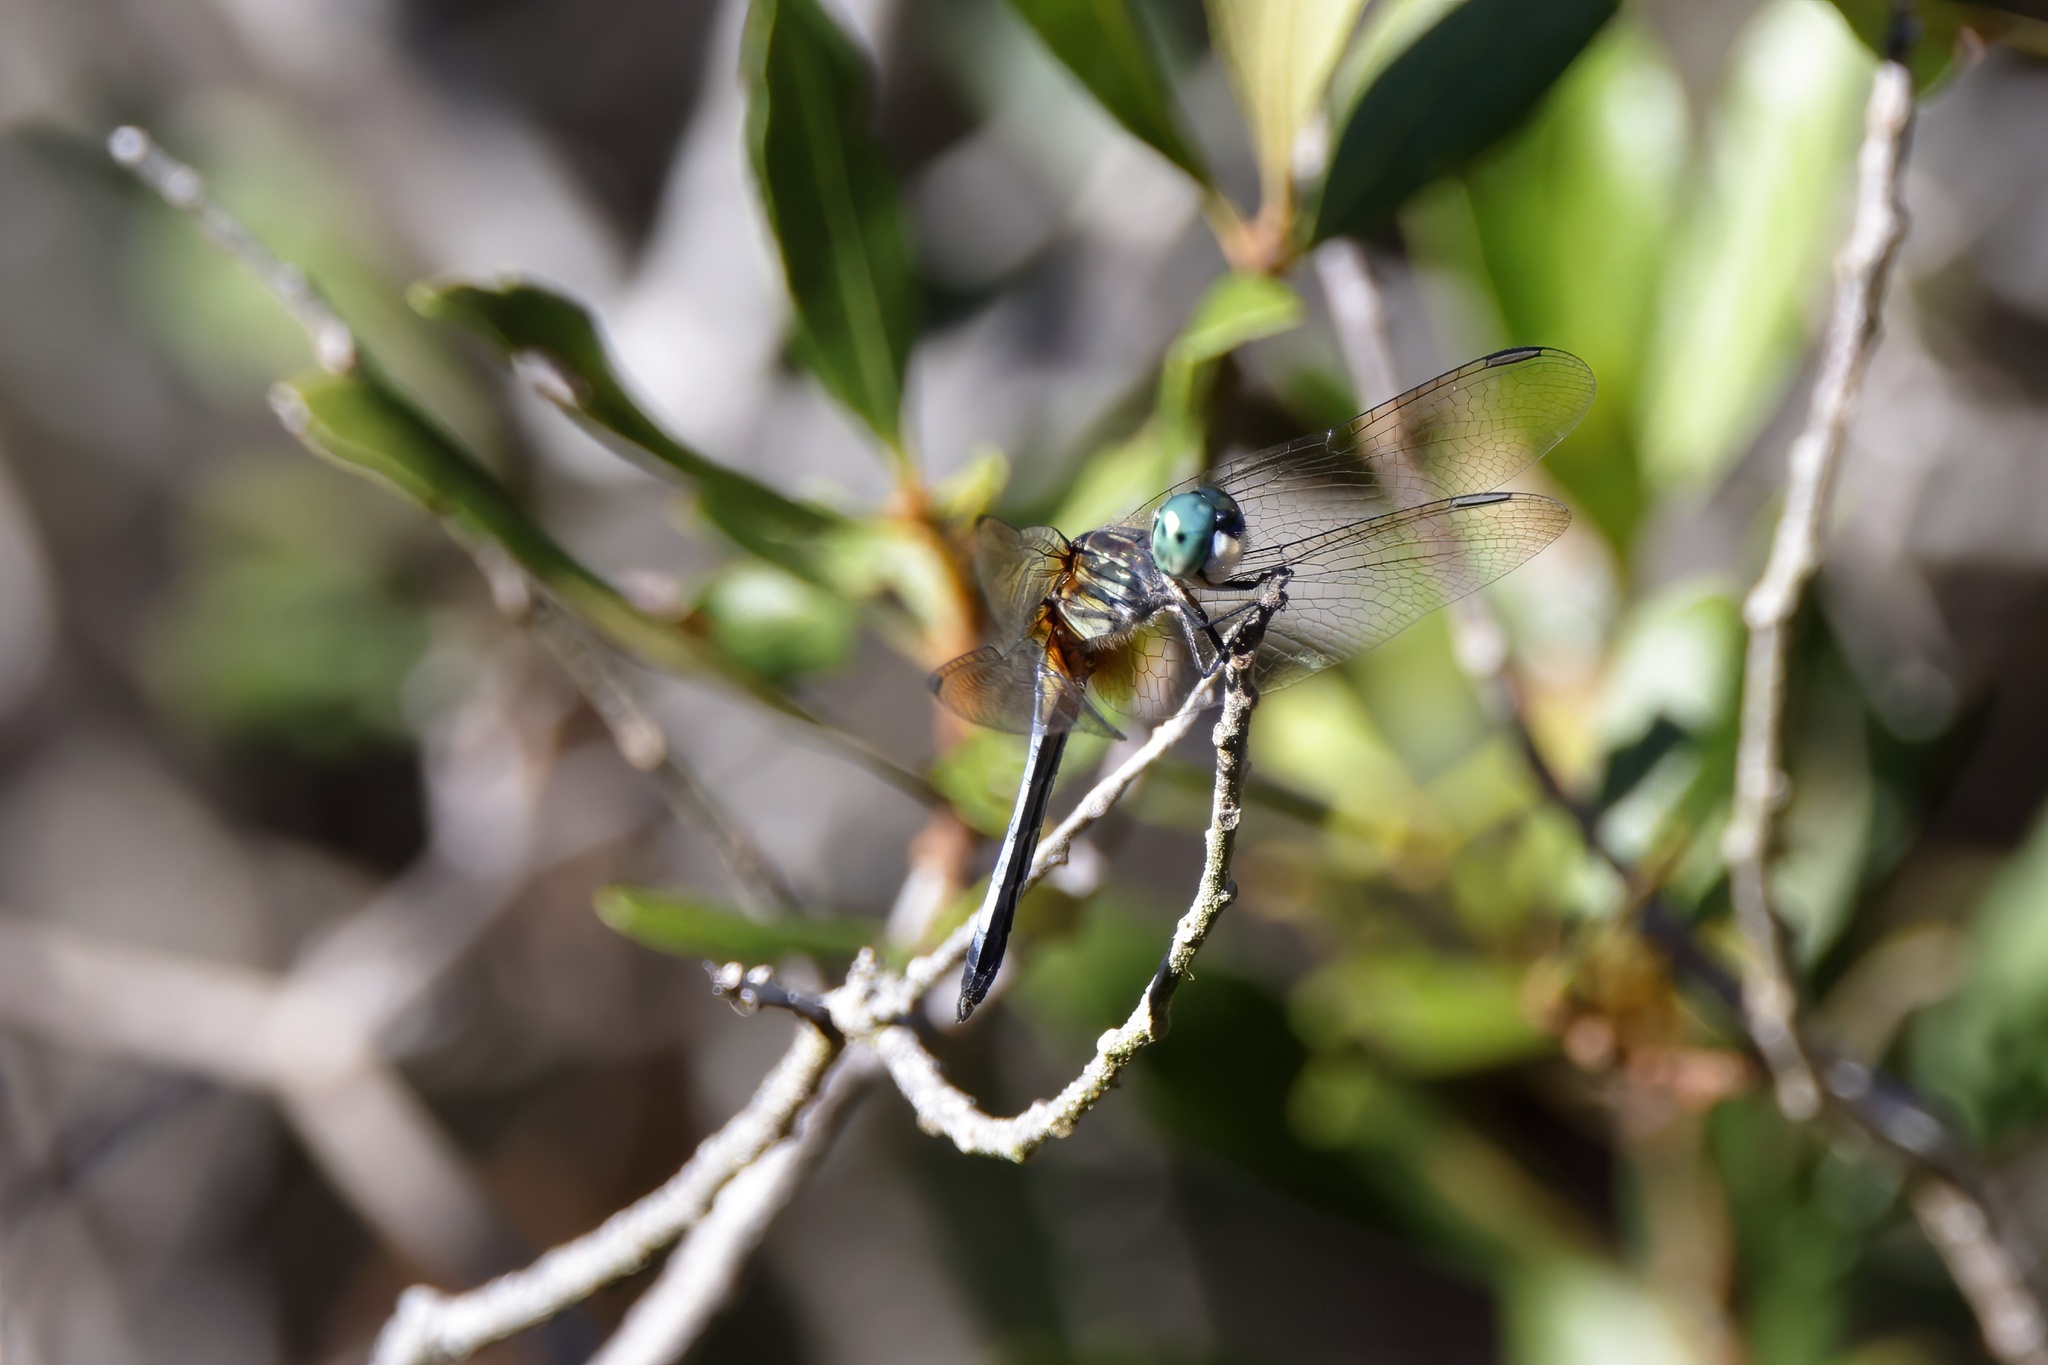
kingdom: Animalia
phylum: Arthropoda
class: Insecta
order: Odonata
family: Libellulidae
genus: Pachydiplax
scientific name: Pachydiplax longipennis
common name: Blue dasher
